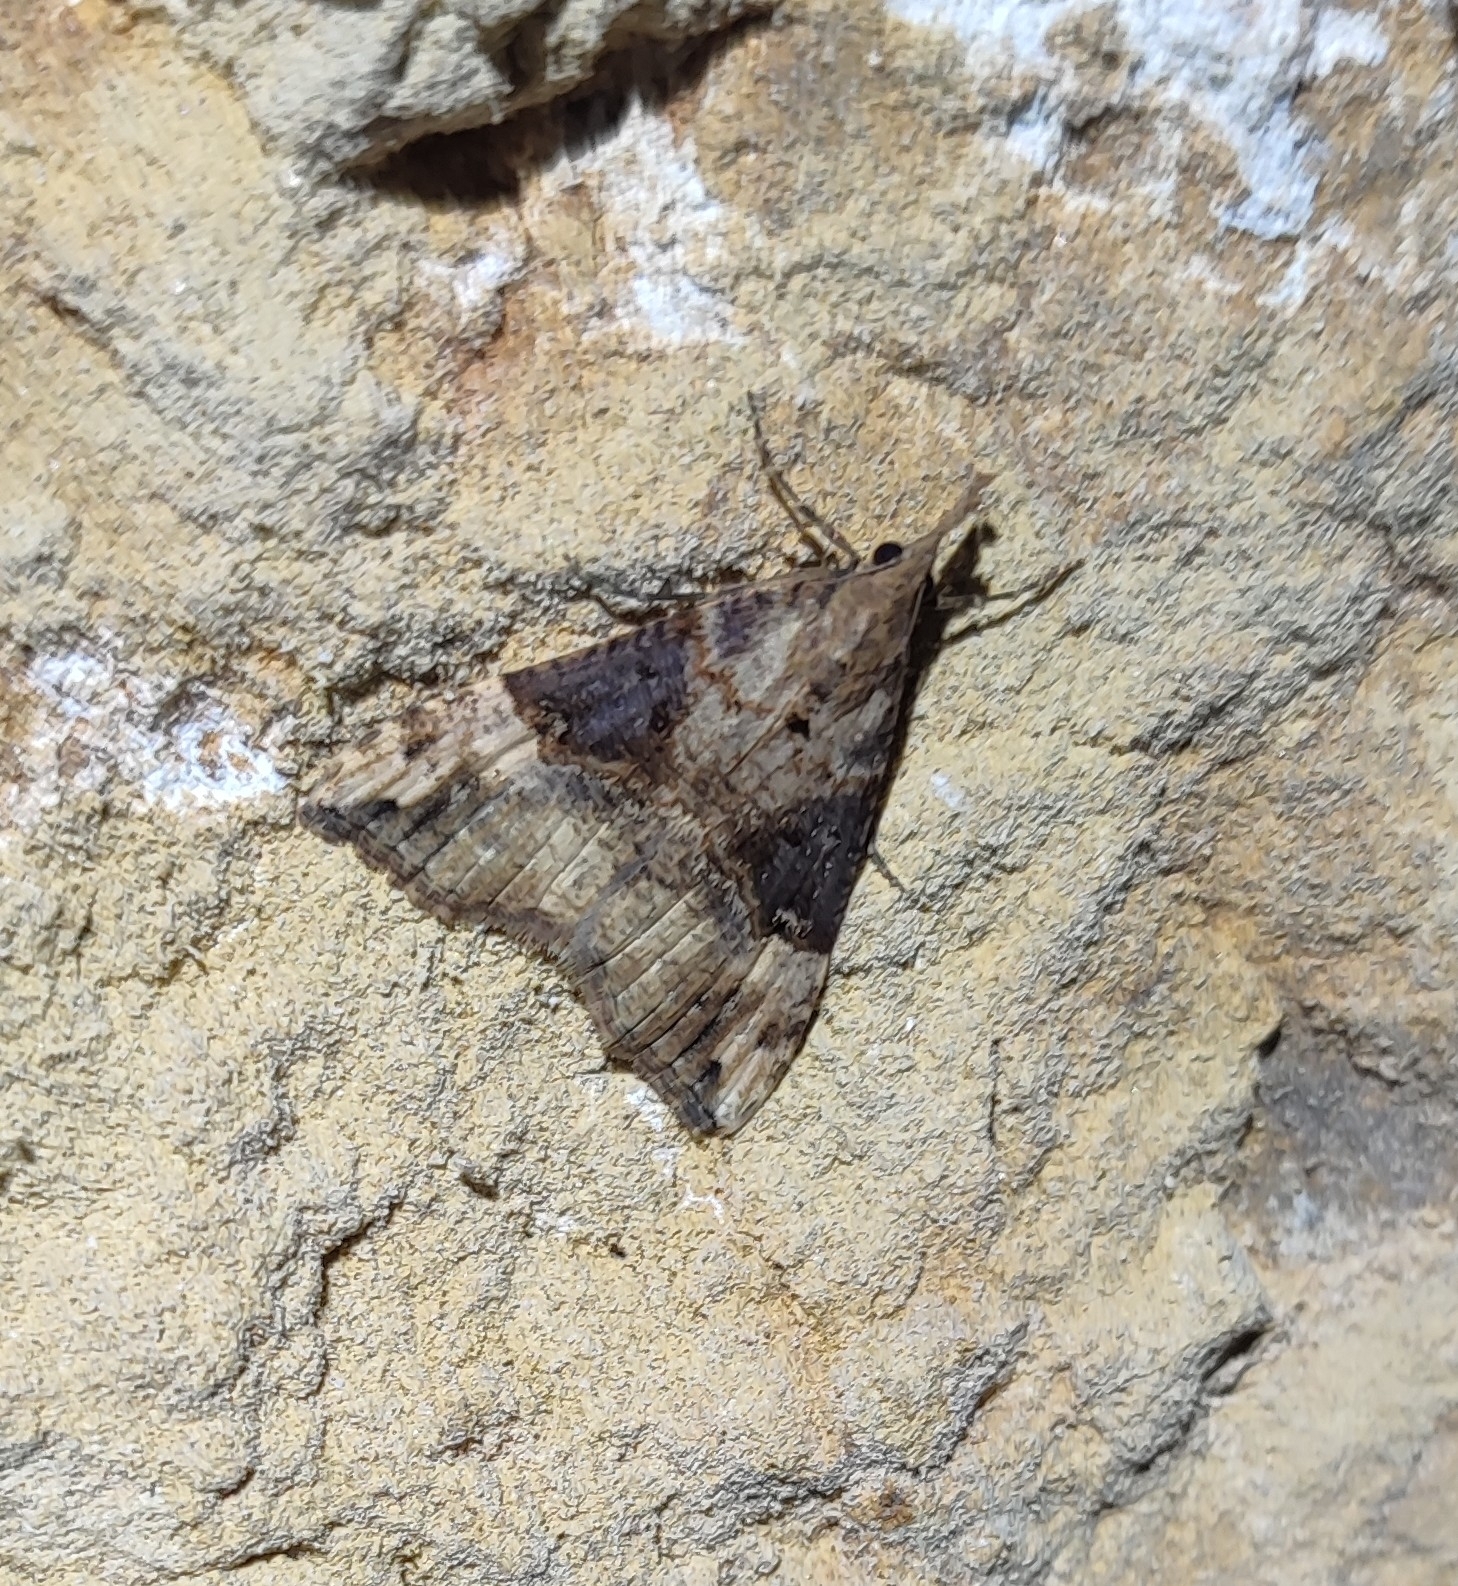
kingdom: Animalia
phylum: Arthropoda
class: Insecta
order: Lepidoptera
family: Erebidae
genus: Hypena
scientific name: Hypena obsitalis
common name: Bloxworth snout
